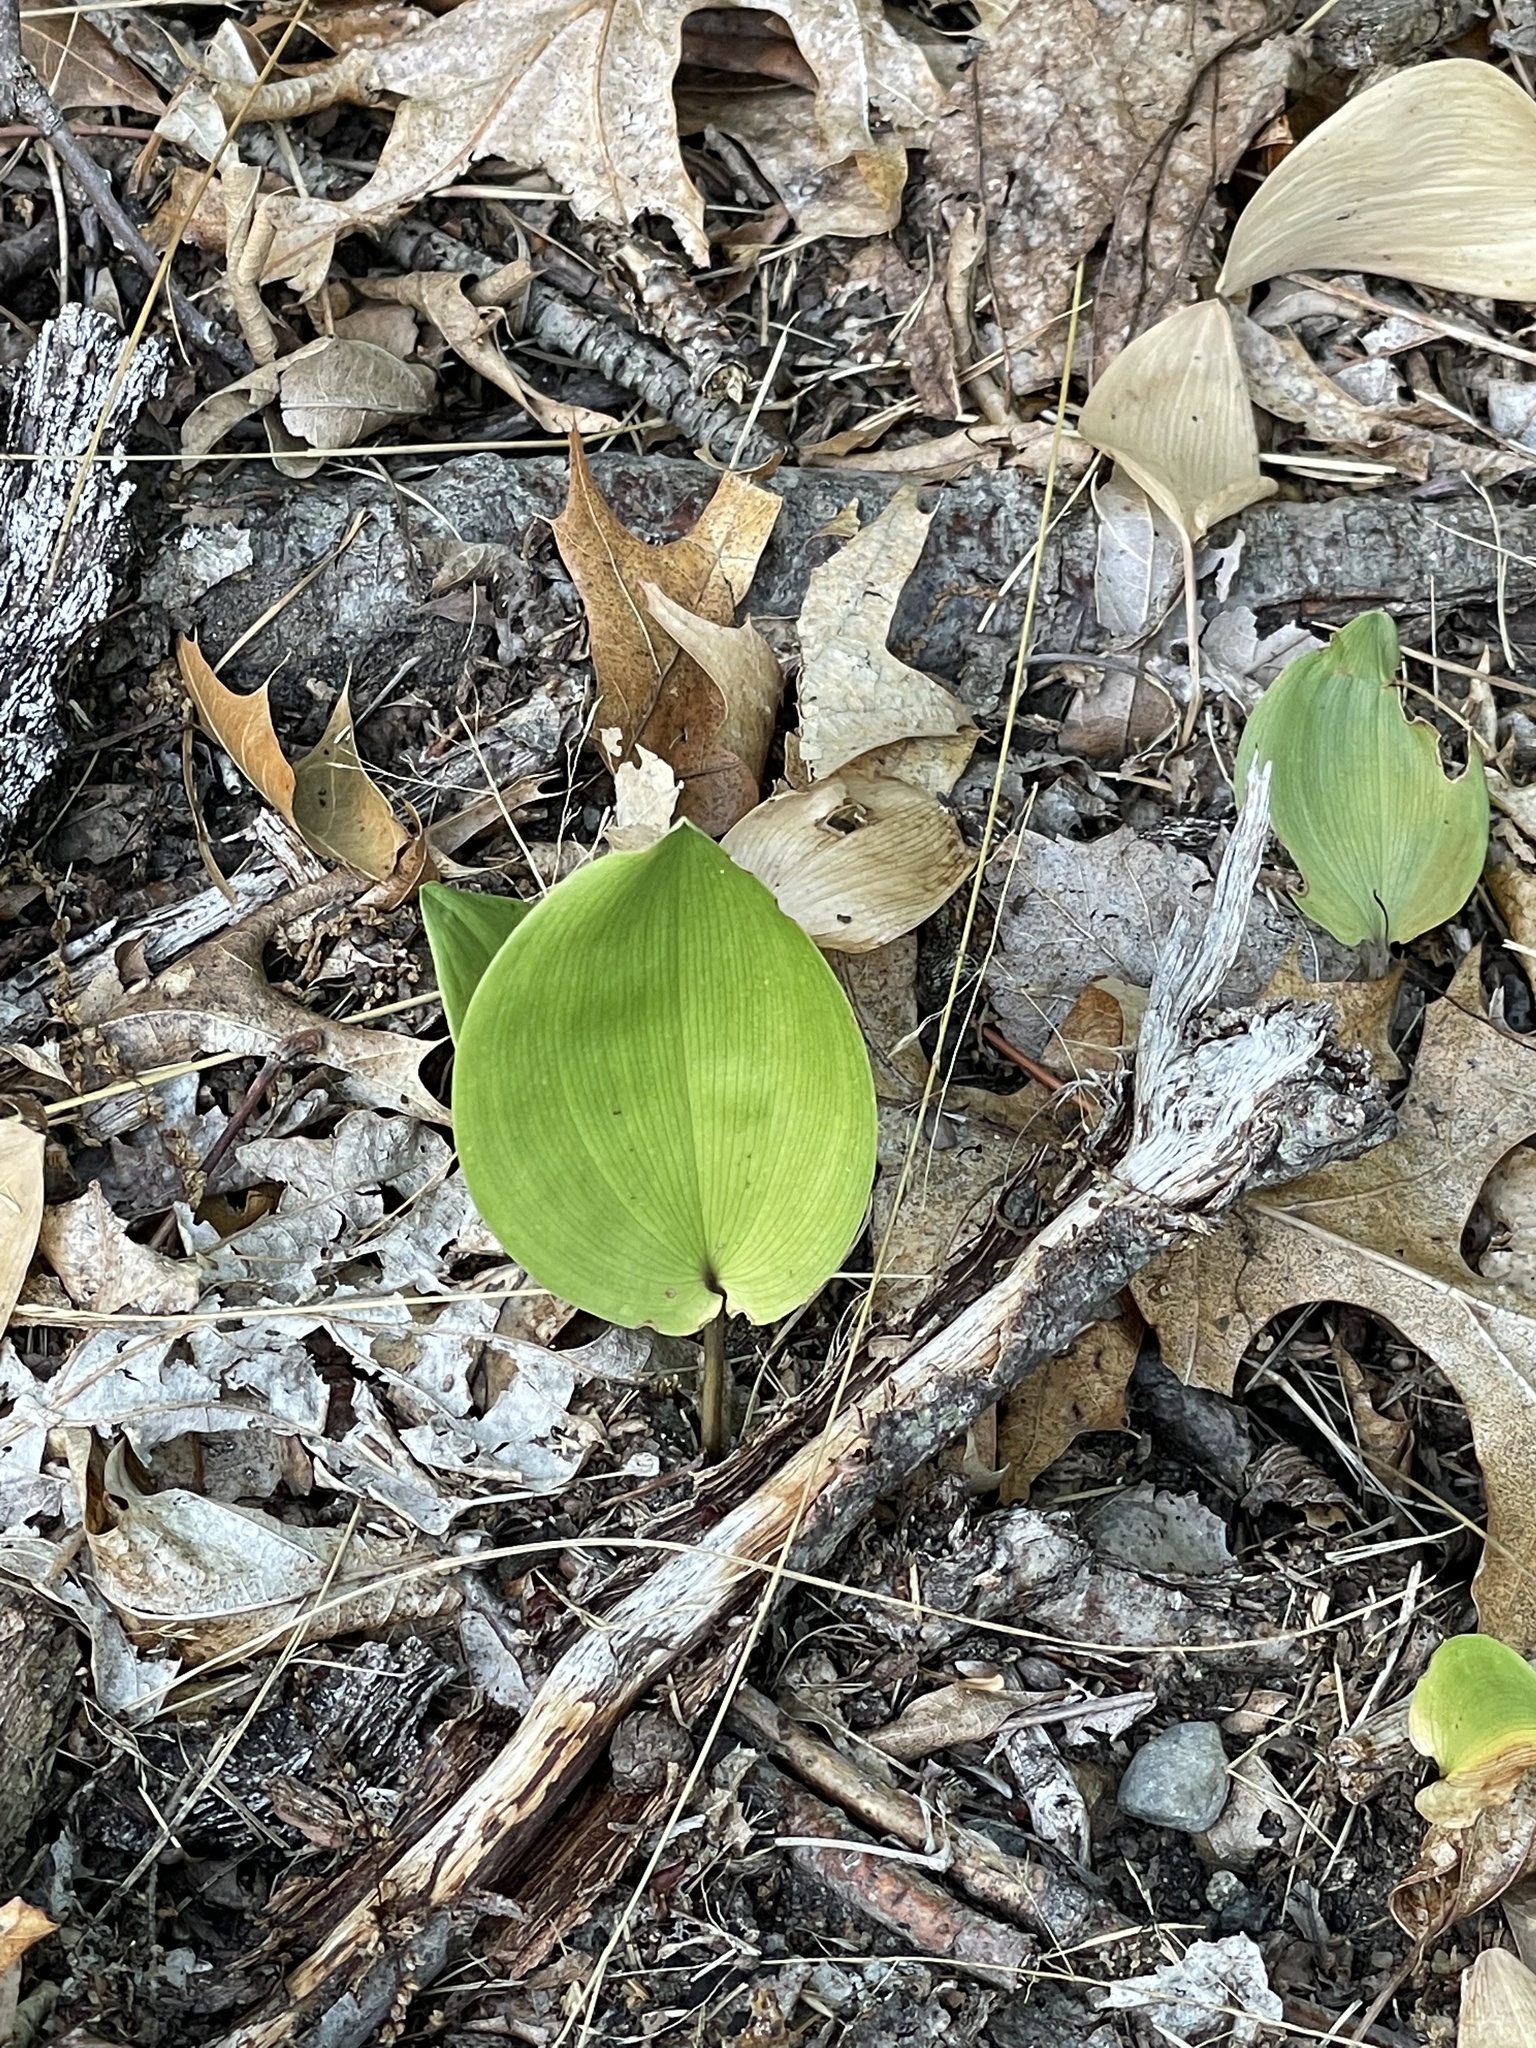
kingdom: Plantae
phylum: Tracheophyta
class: Liliopsida
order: Asparagales
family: Asparagaceae
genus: Maianthemum
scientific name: Maianthemum canadense
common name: False lily-of-the-valley
